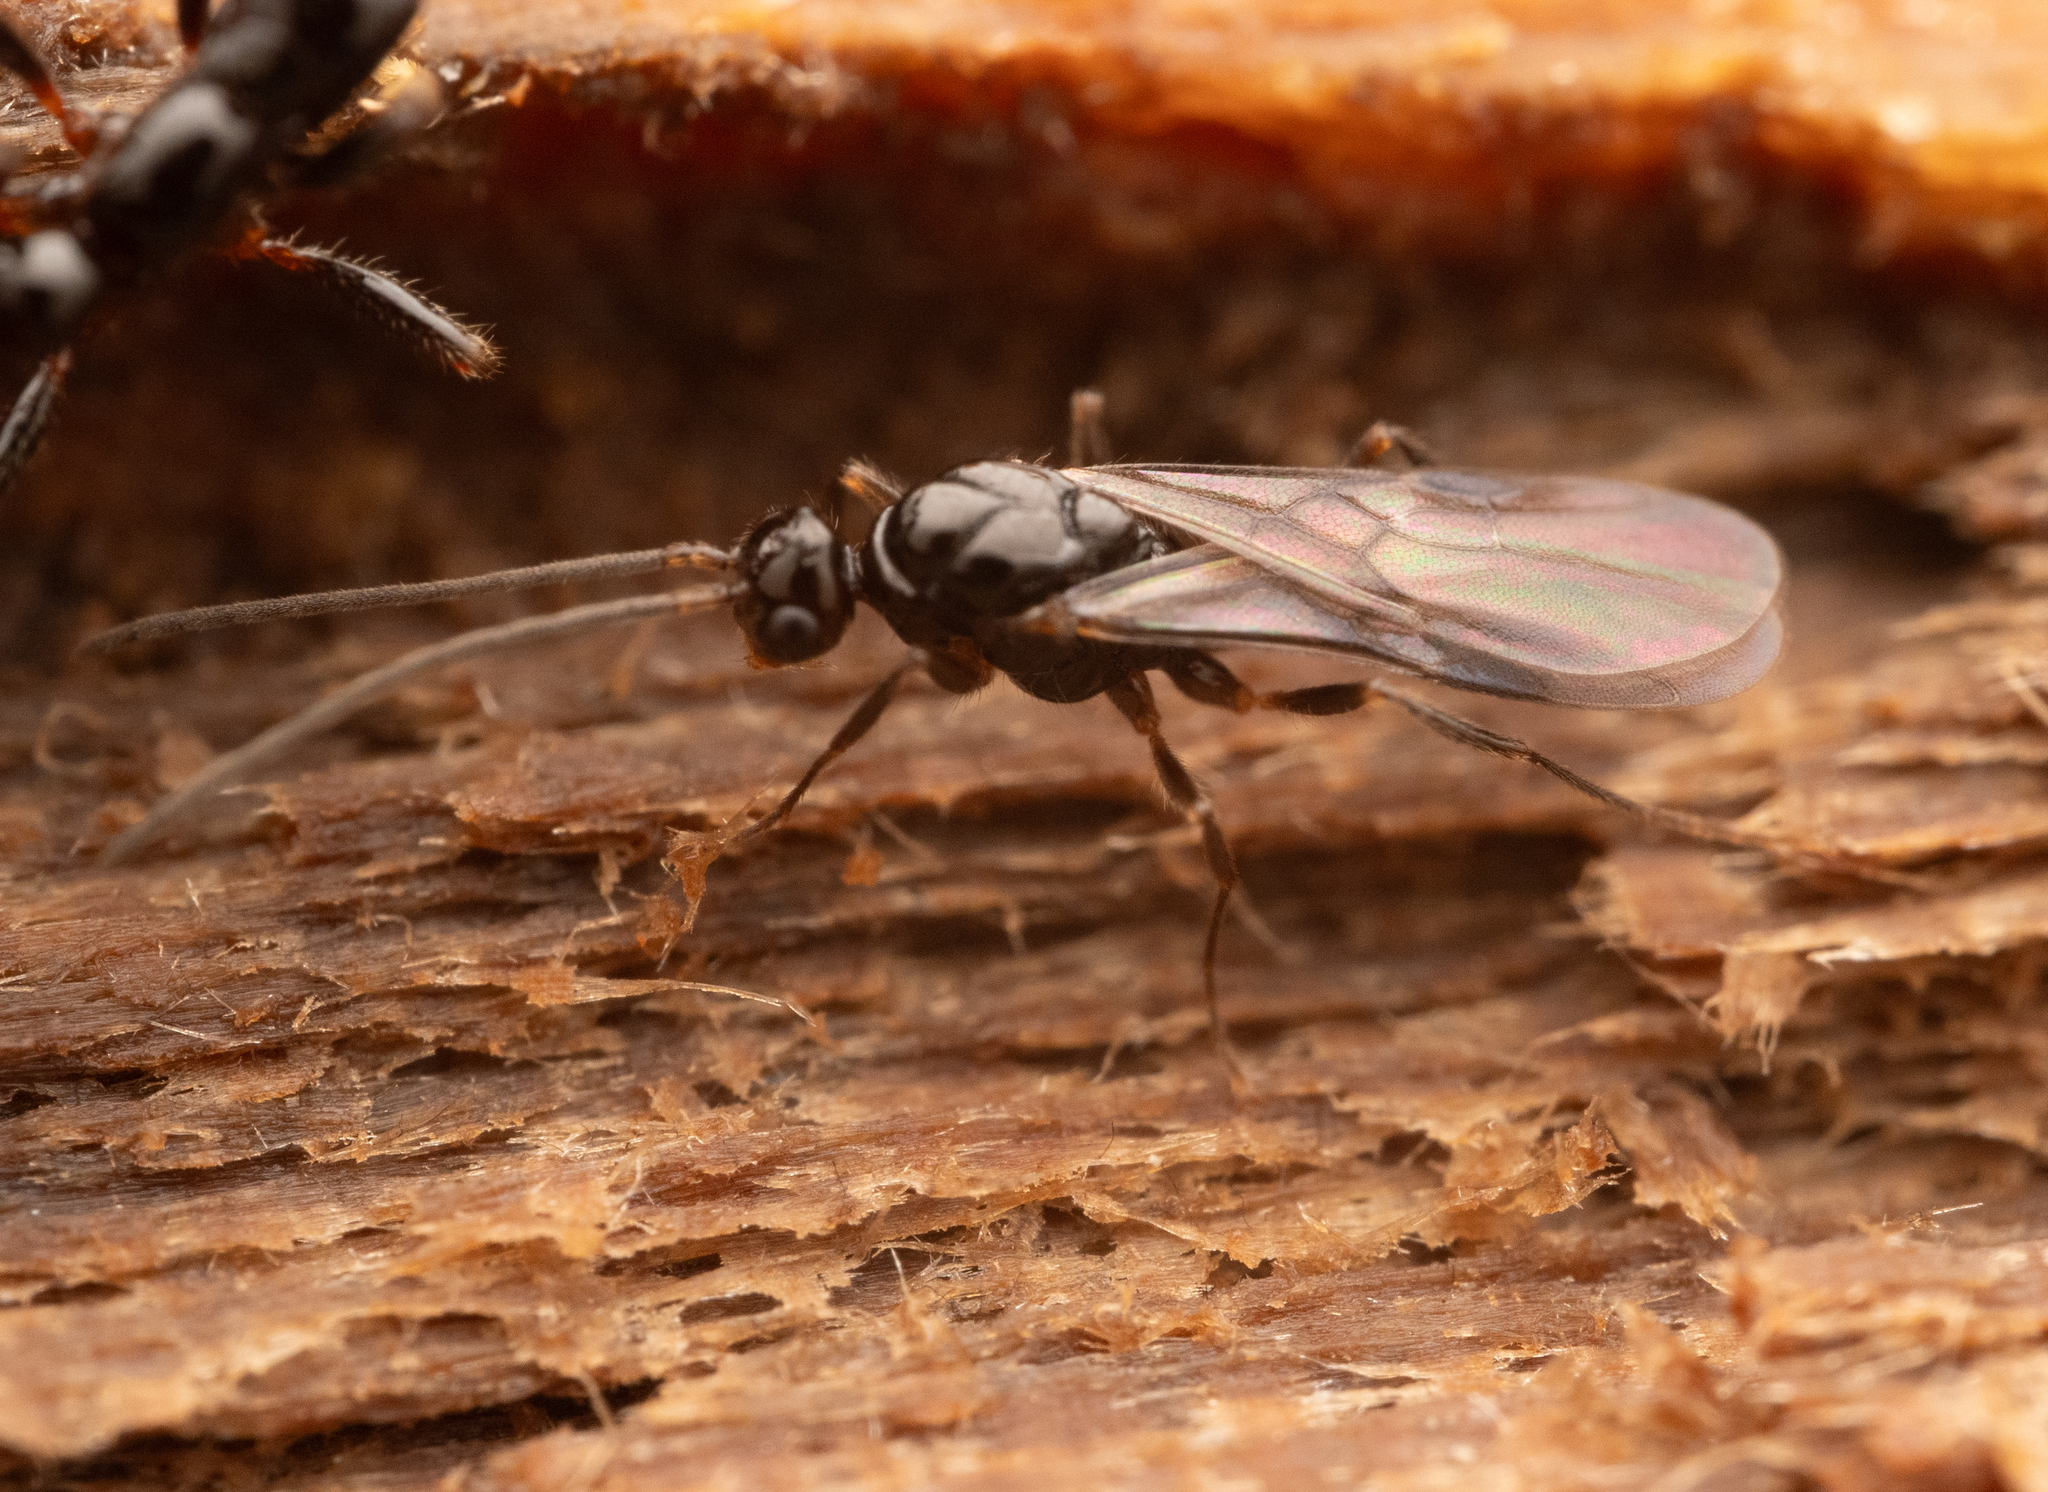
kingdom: Animalia
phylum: Arthropoda
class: Insecta
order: Hymenoptera
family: Formicidae
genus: Myopias
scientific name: Myopias latinoda
